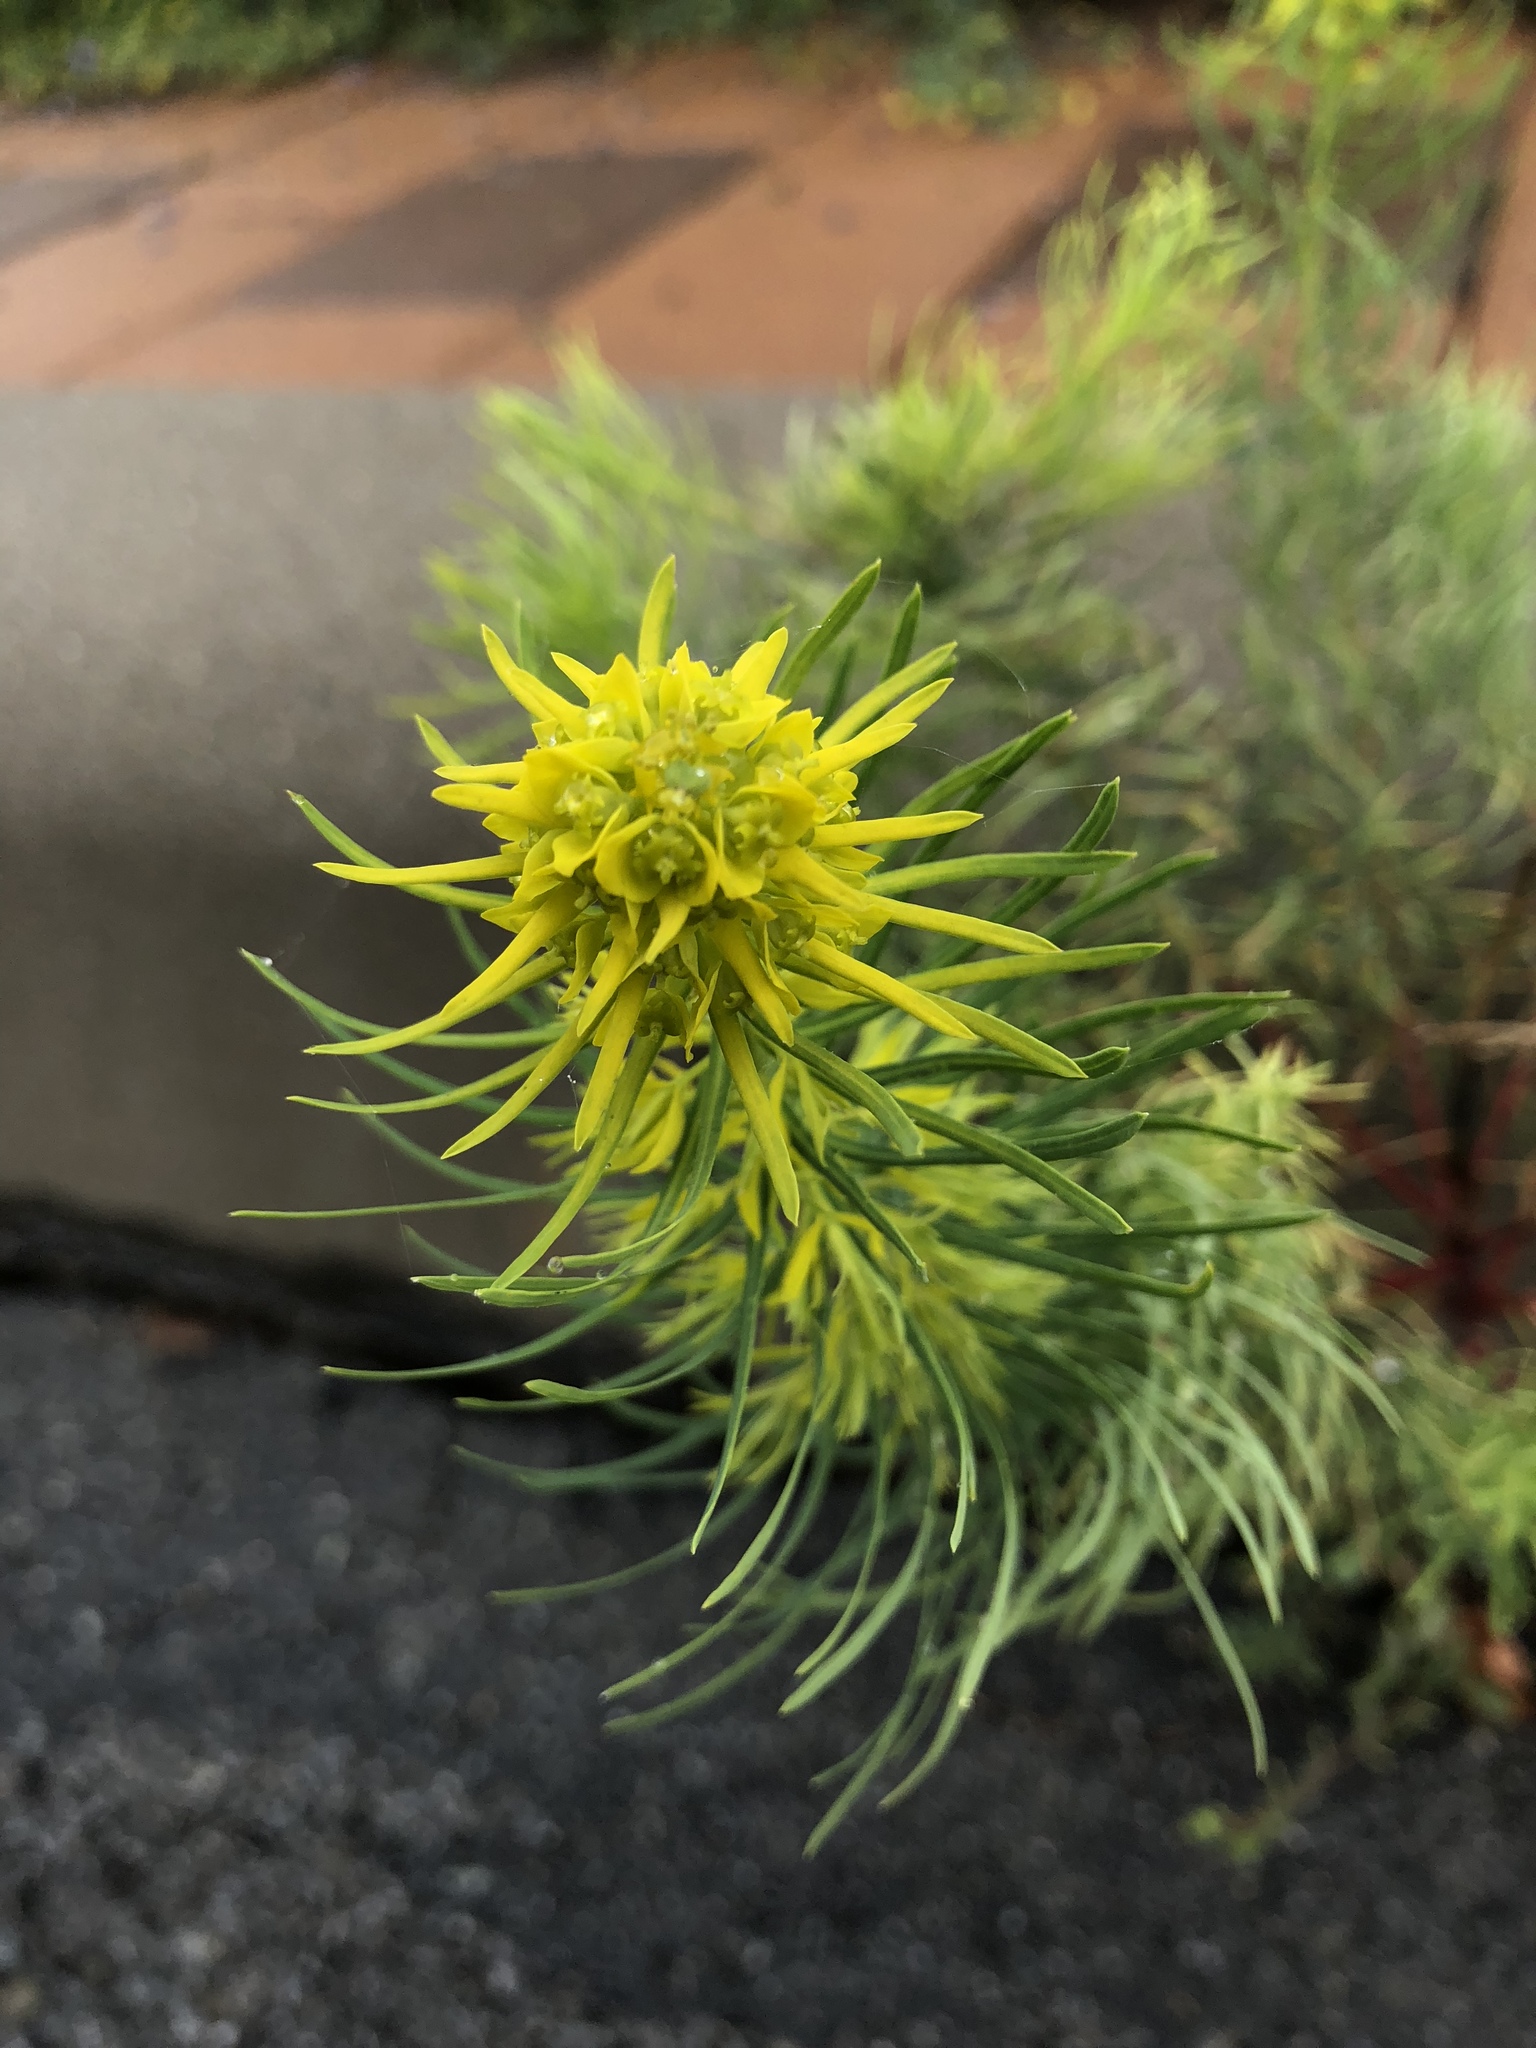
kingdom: Plantae
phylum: Tracheophyta
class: Magnoliopsida
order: Malpighiales
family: Euphorbiaceae
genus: Euphorbia
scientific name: Euphorbia cyparissias
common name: Cypress spurge
